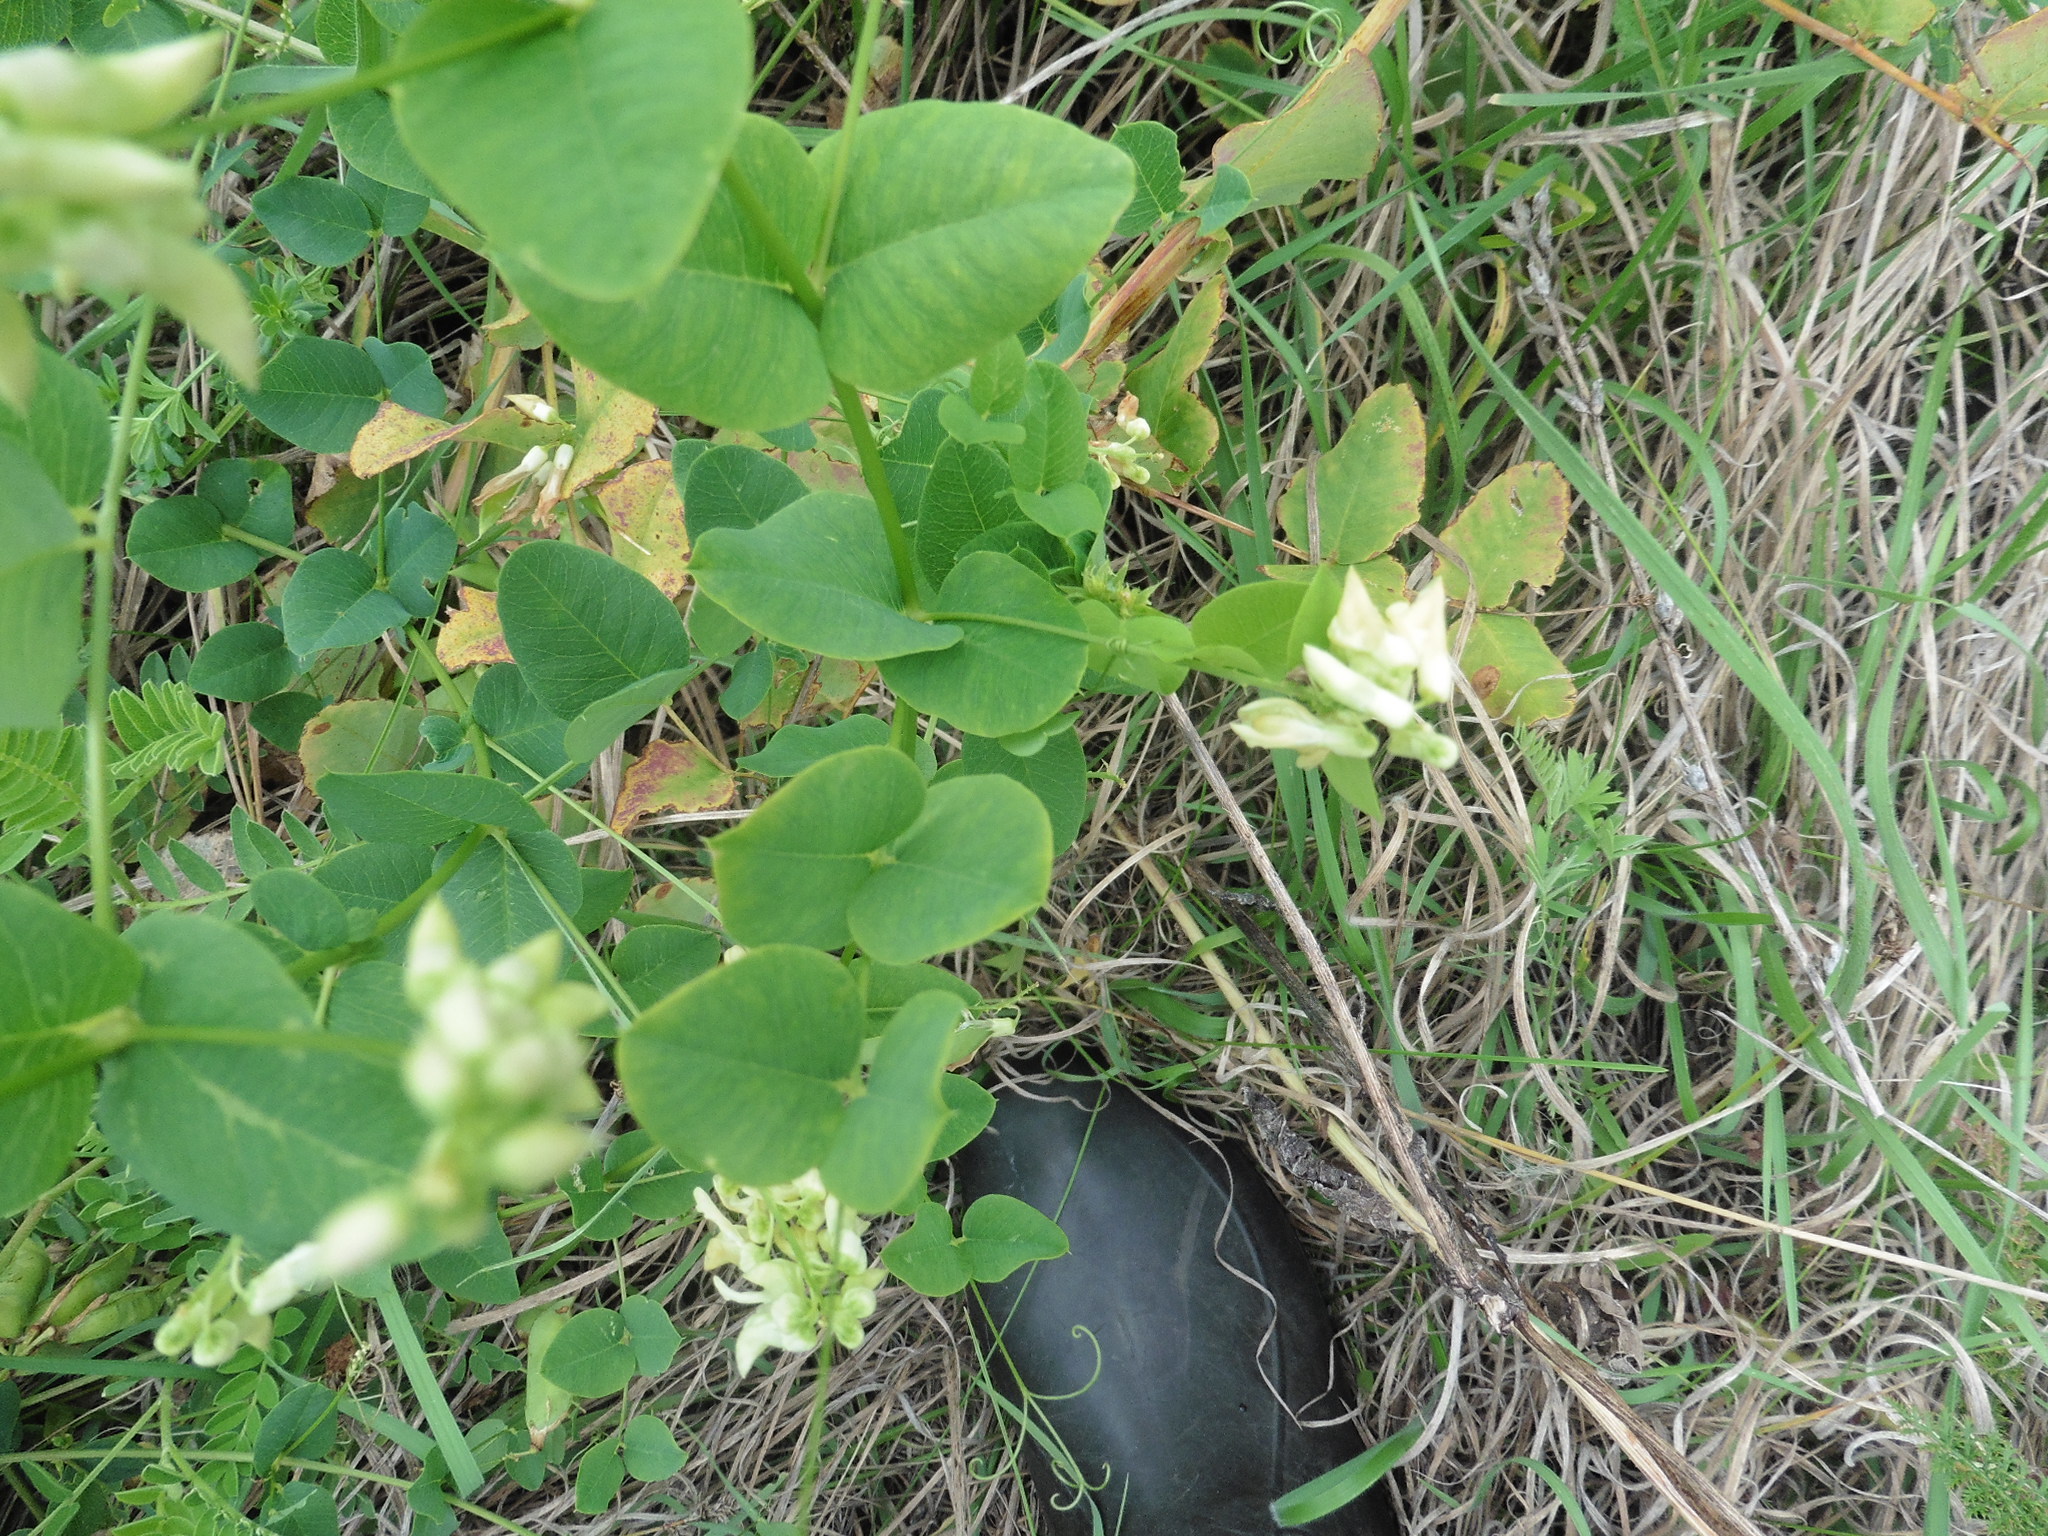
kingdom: Plantae
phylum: Tracheophyta
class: Magnoliopsida
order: Fabales
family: Fabaceae
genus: Vicia
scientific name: Vicia pisiformis
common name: Pale-flower vetch
